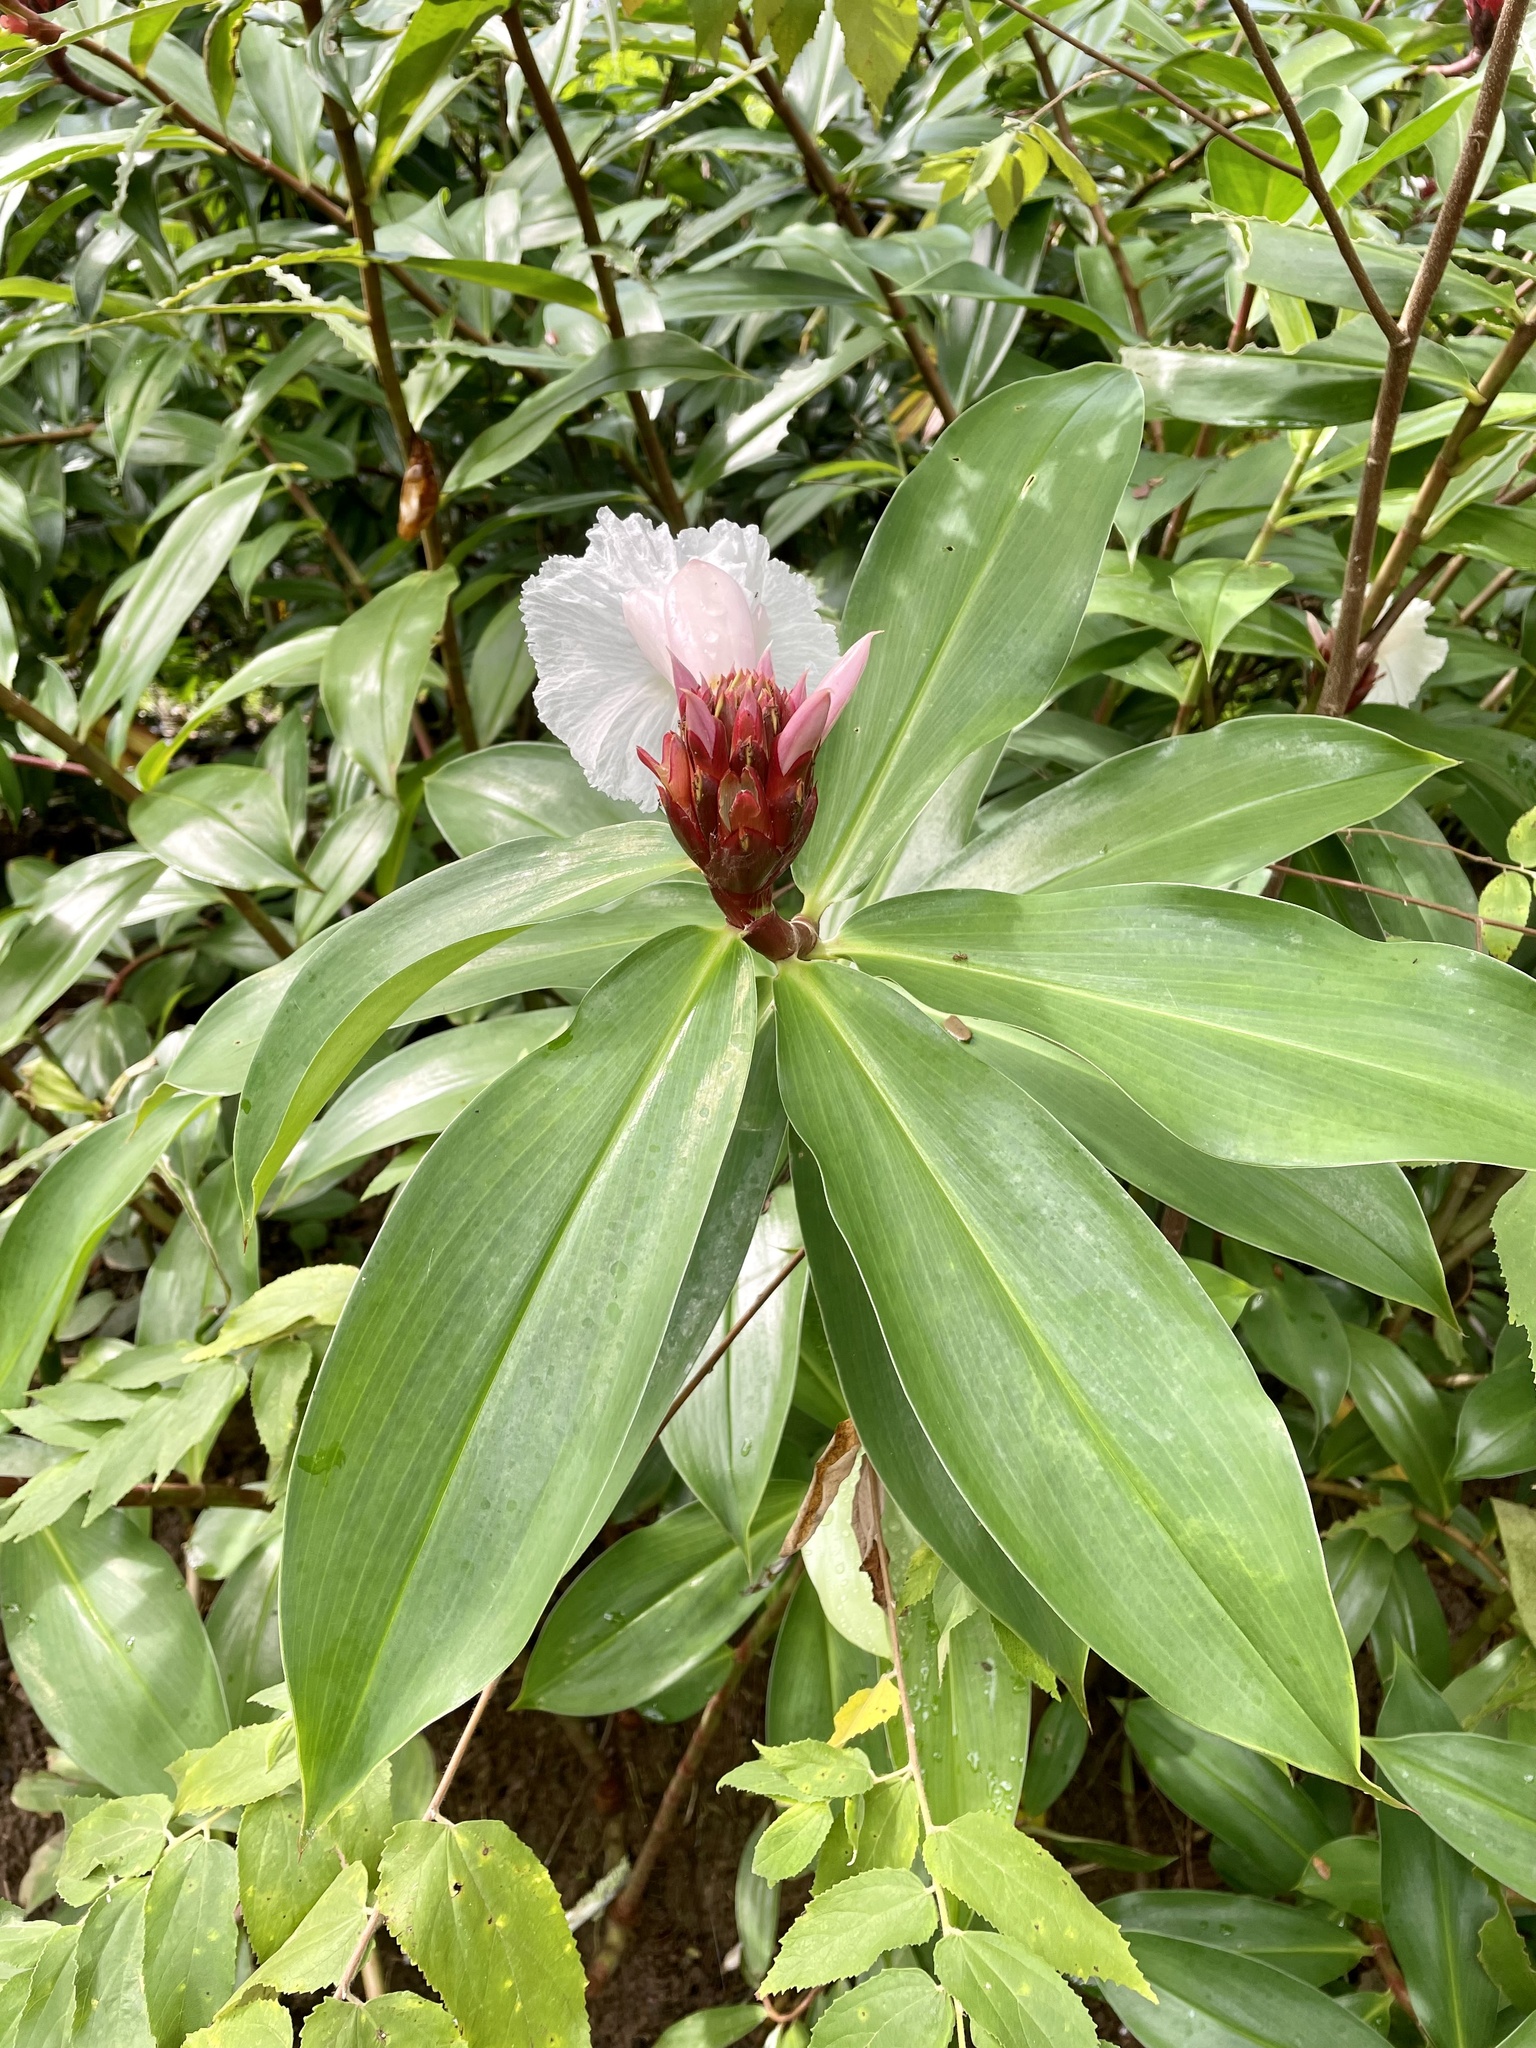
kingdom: Plantae
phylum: Tracheophyta
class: Liliopsida
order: Zingiberales
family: Costaceae
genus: Hellenia
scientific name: Hellenia speciosa
